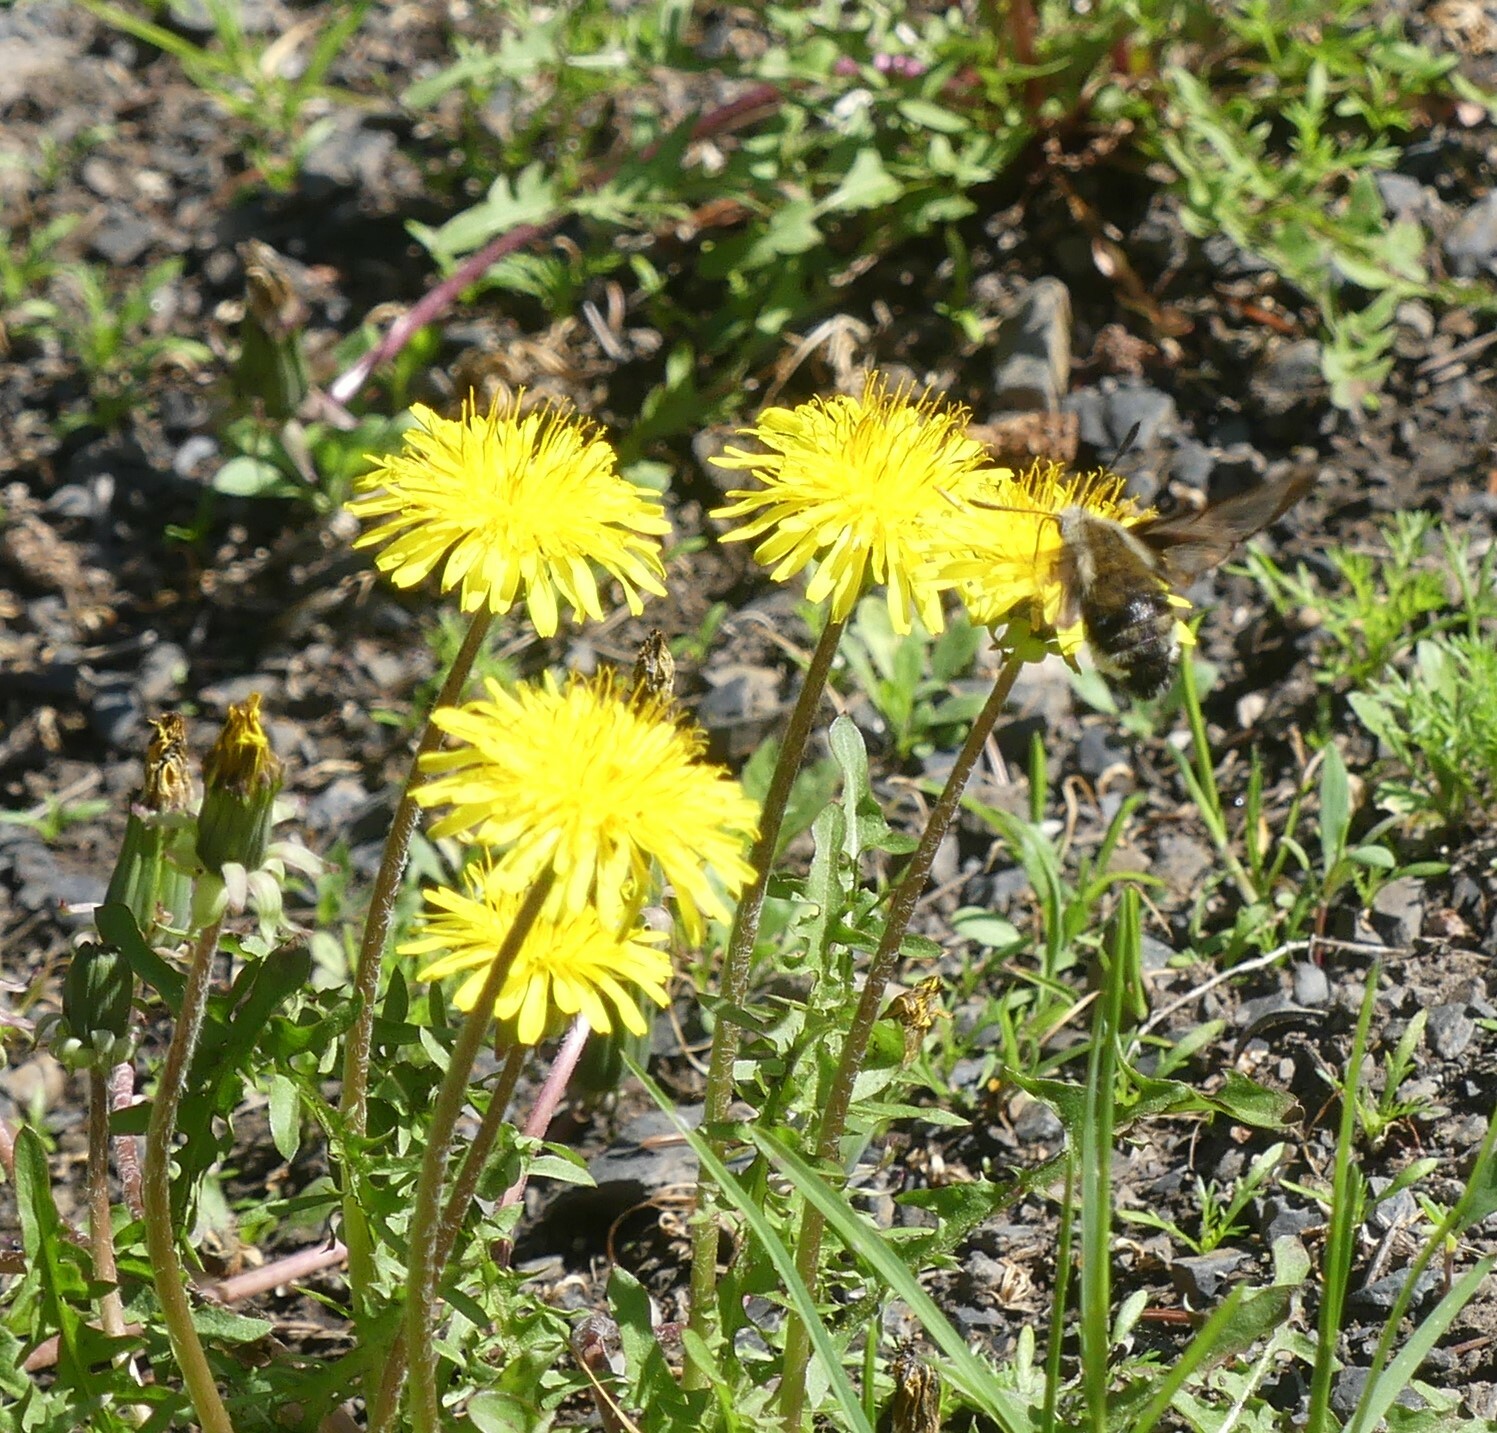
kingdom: Animalia
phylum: Arthropoda
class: Insecta
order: Lepidoptera
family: Sphingidae
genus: Hemaris
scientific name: Hemaris thetis
